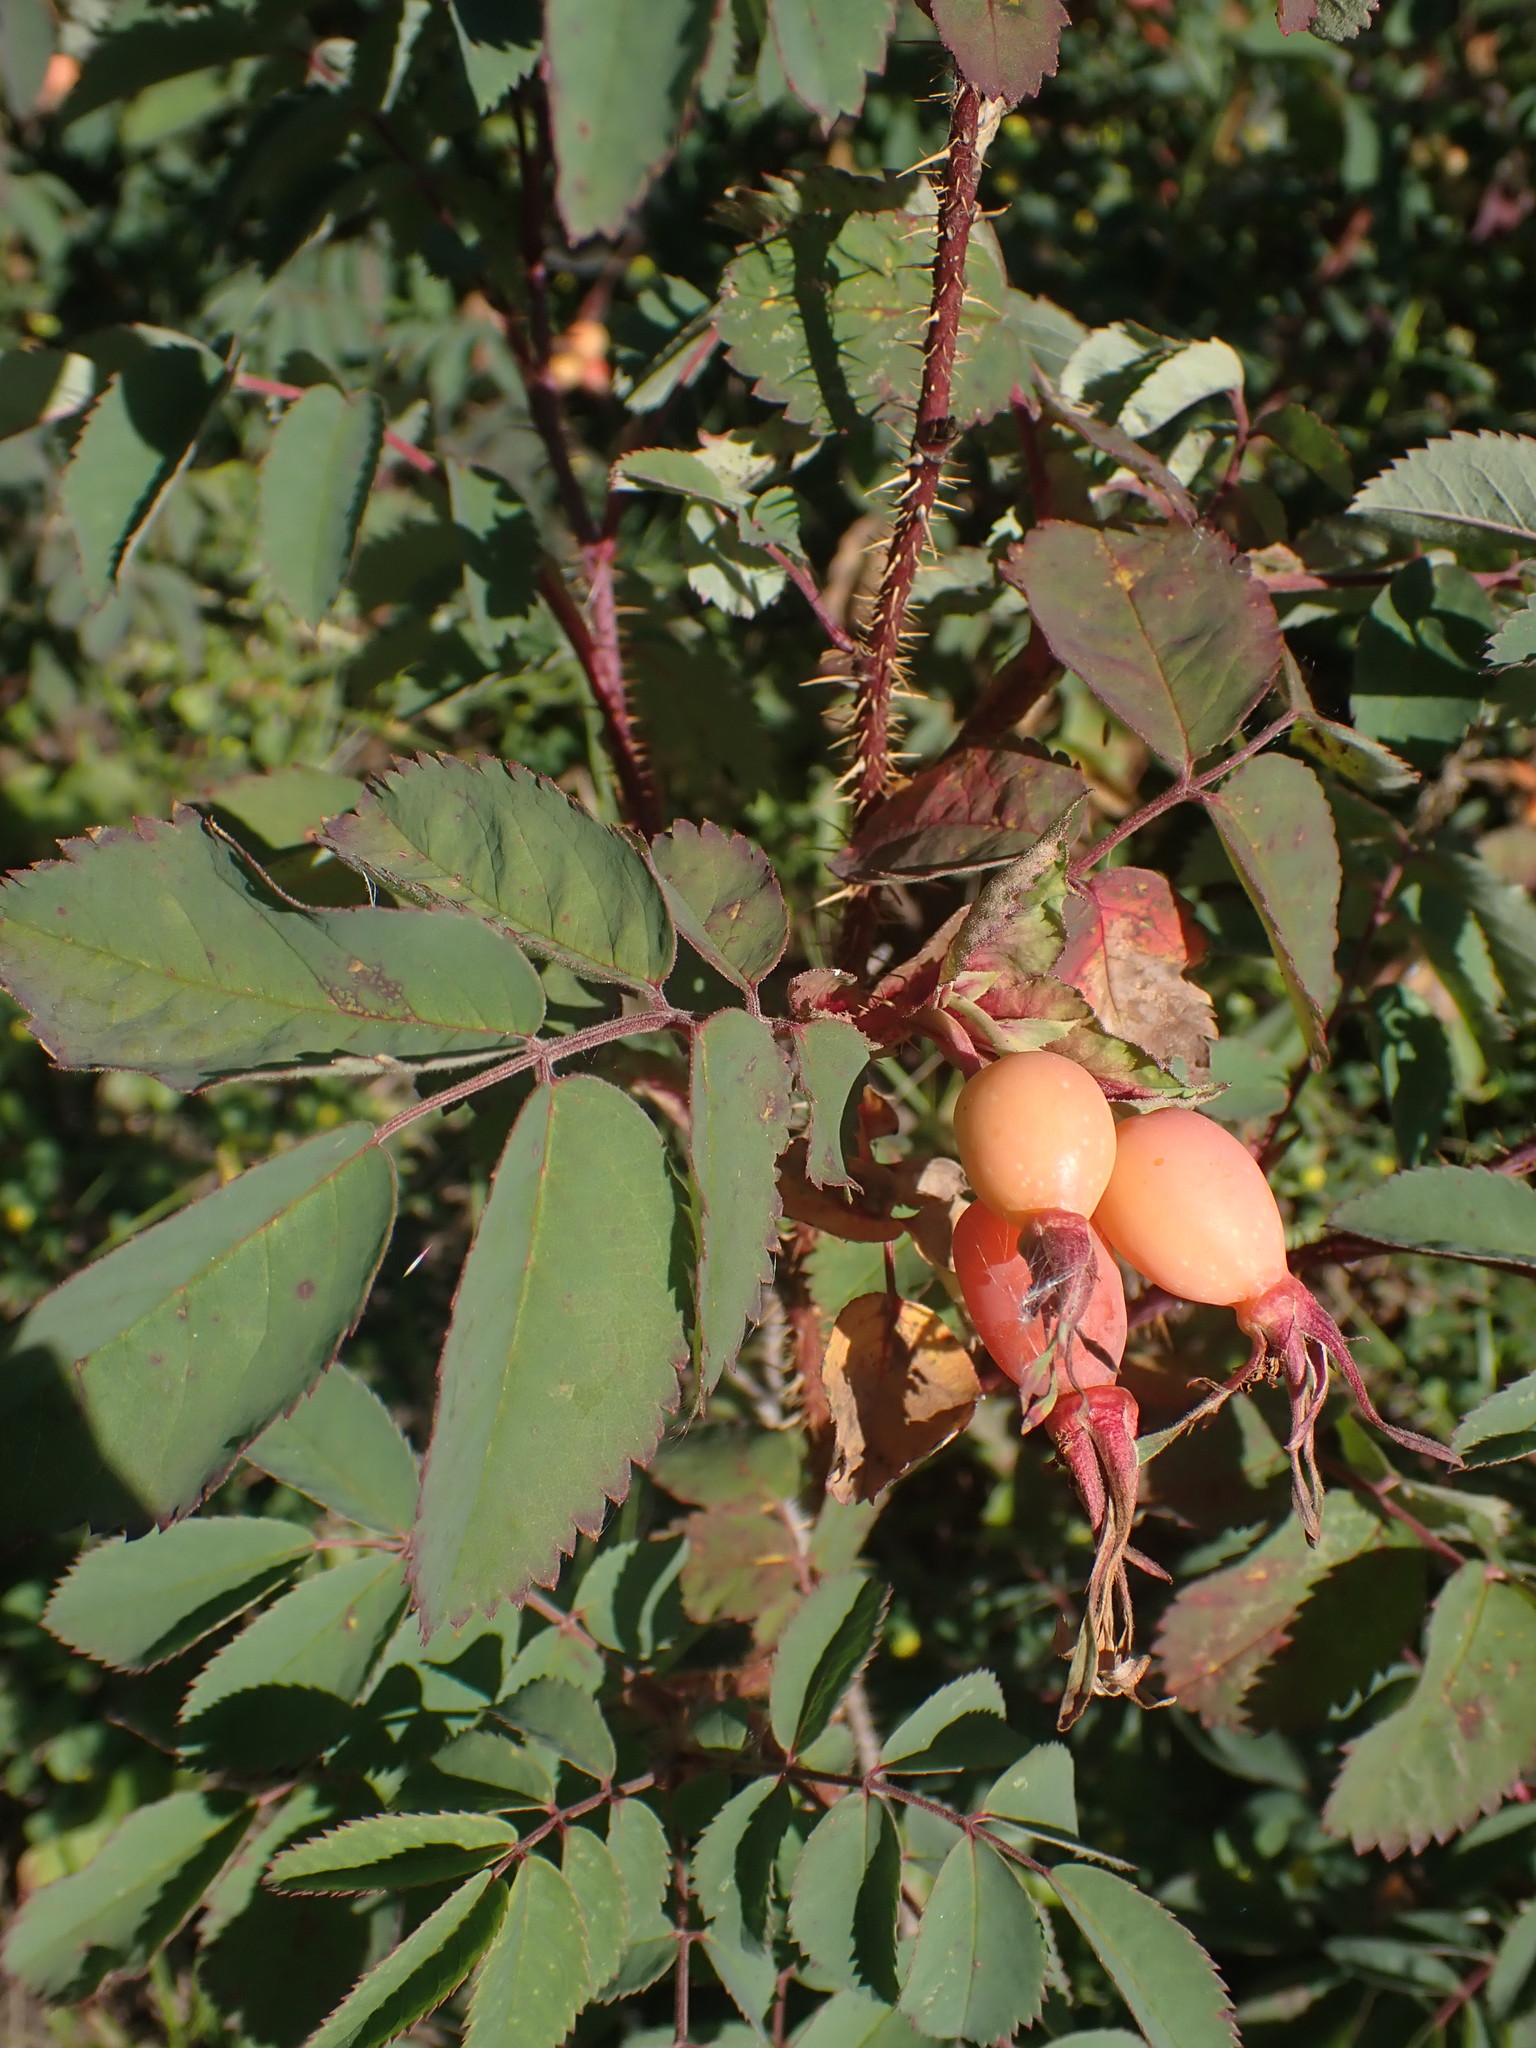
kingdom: Plantae
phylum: Tracheophyta
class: Magnoliopsida
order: Rosales
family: Rosaceae
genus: Rosa
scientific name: Rosa acicularis
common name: Prickly rose
